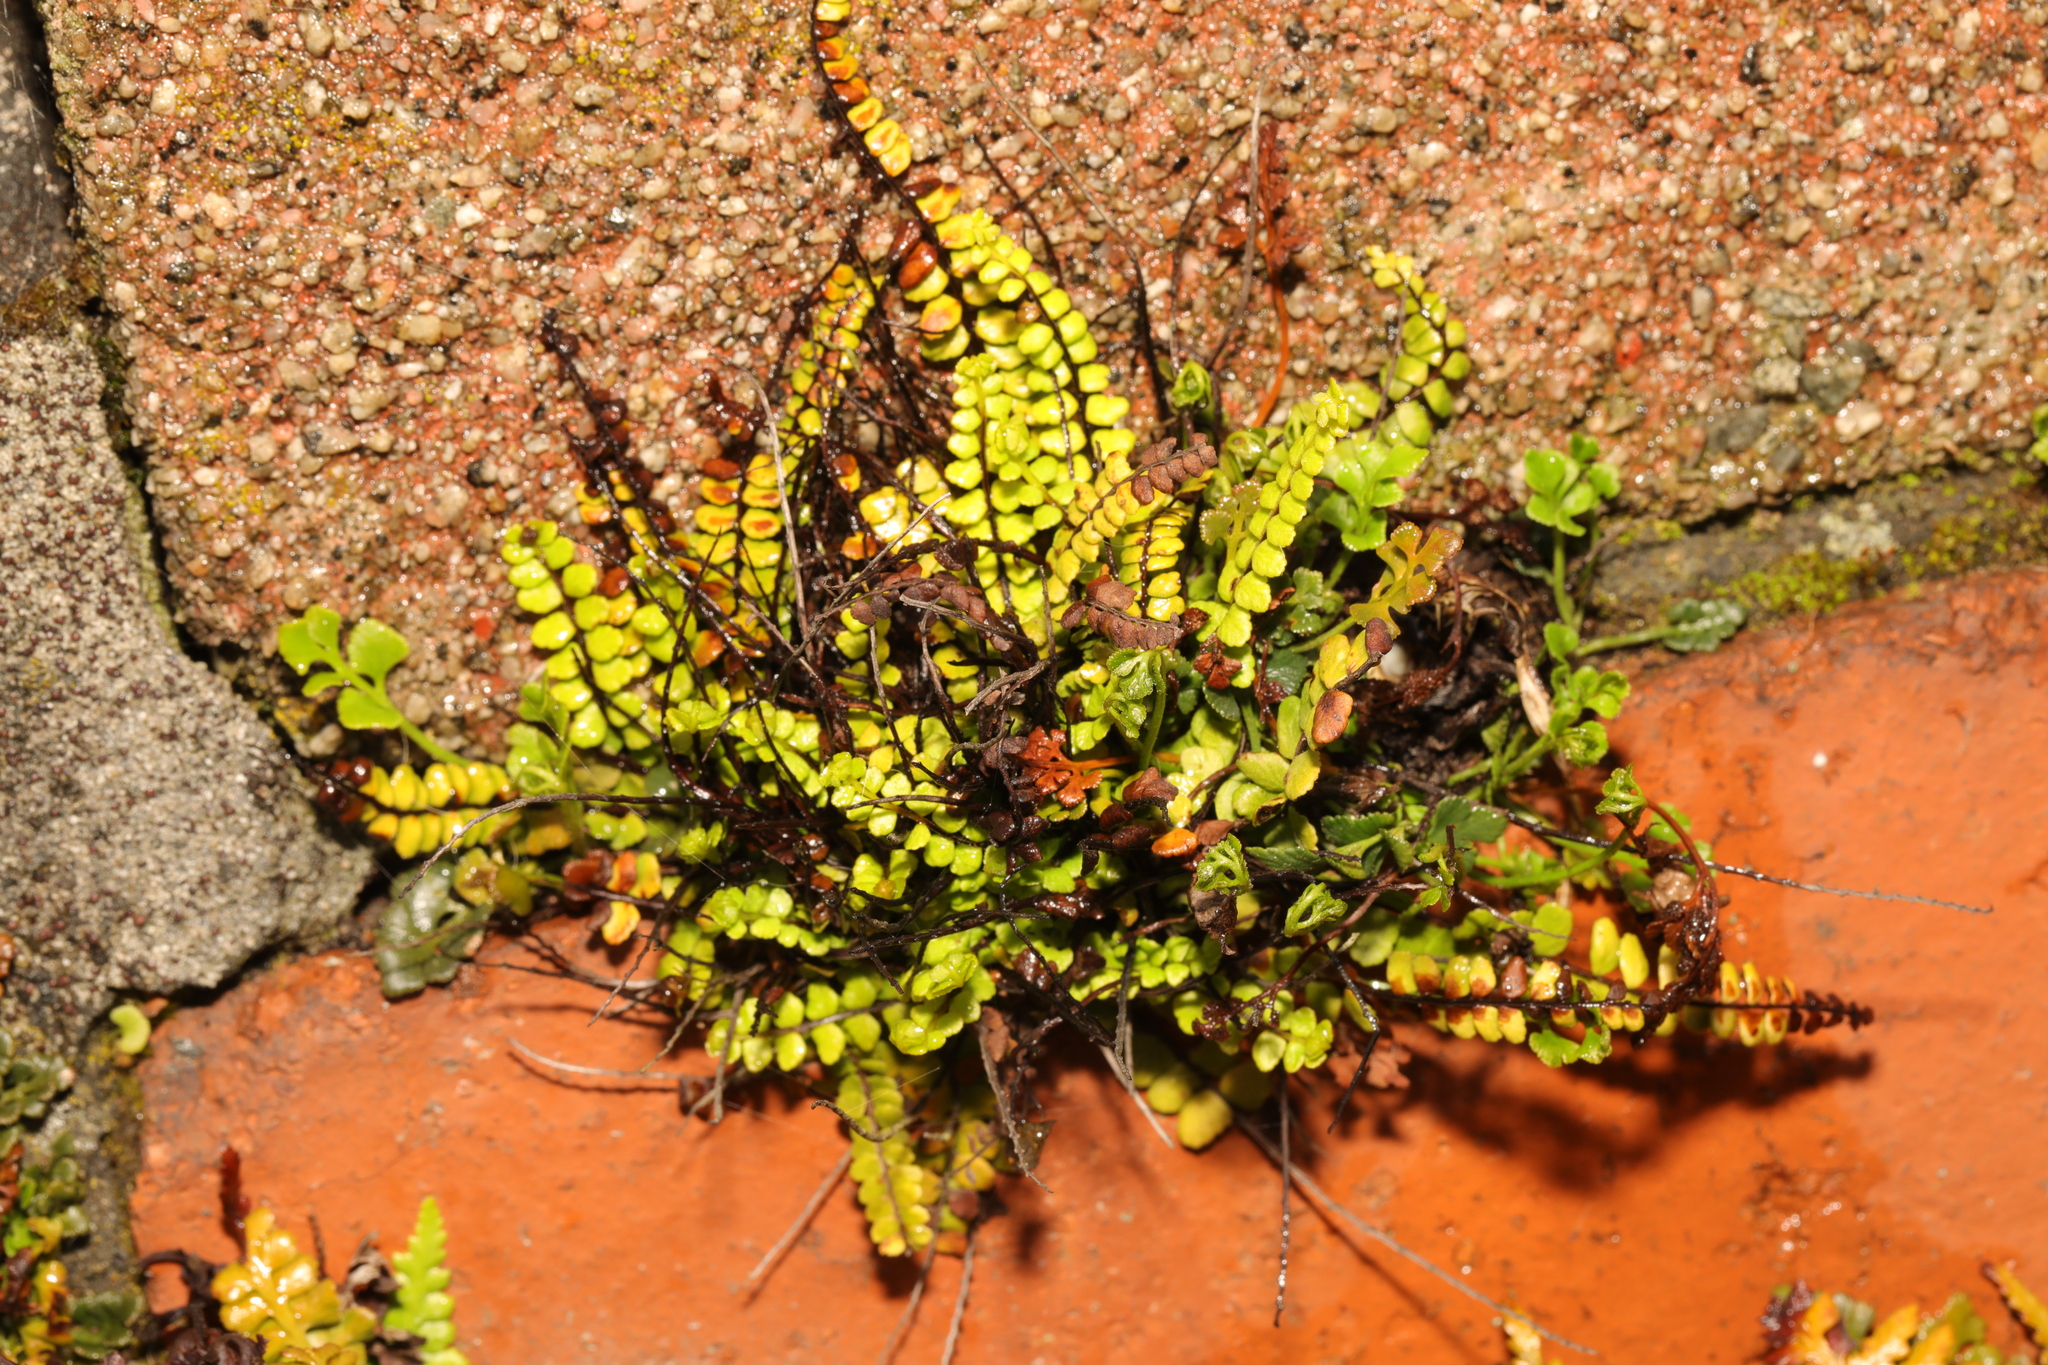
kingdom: Plantae
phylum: Tracheophyta
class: Polypodiopsida
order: Polypodiales
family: Aspleniaceae
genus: Asplenium
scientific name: Asplenium trichomanes
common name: Maidenhair spleenwort
